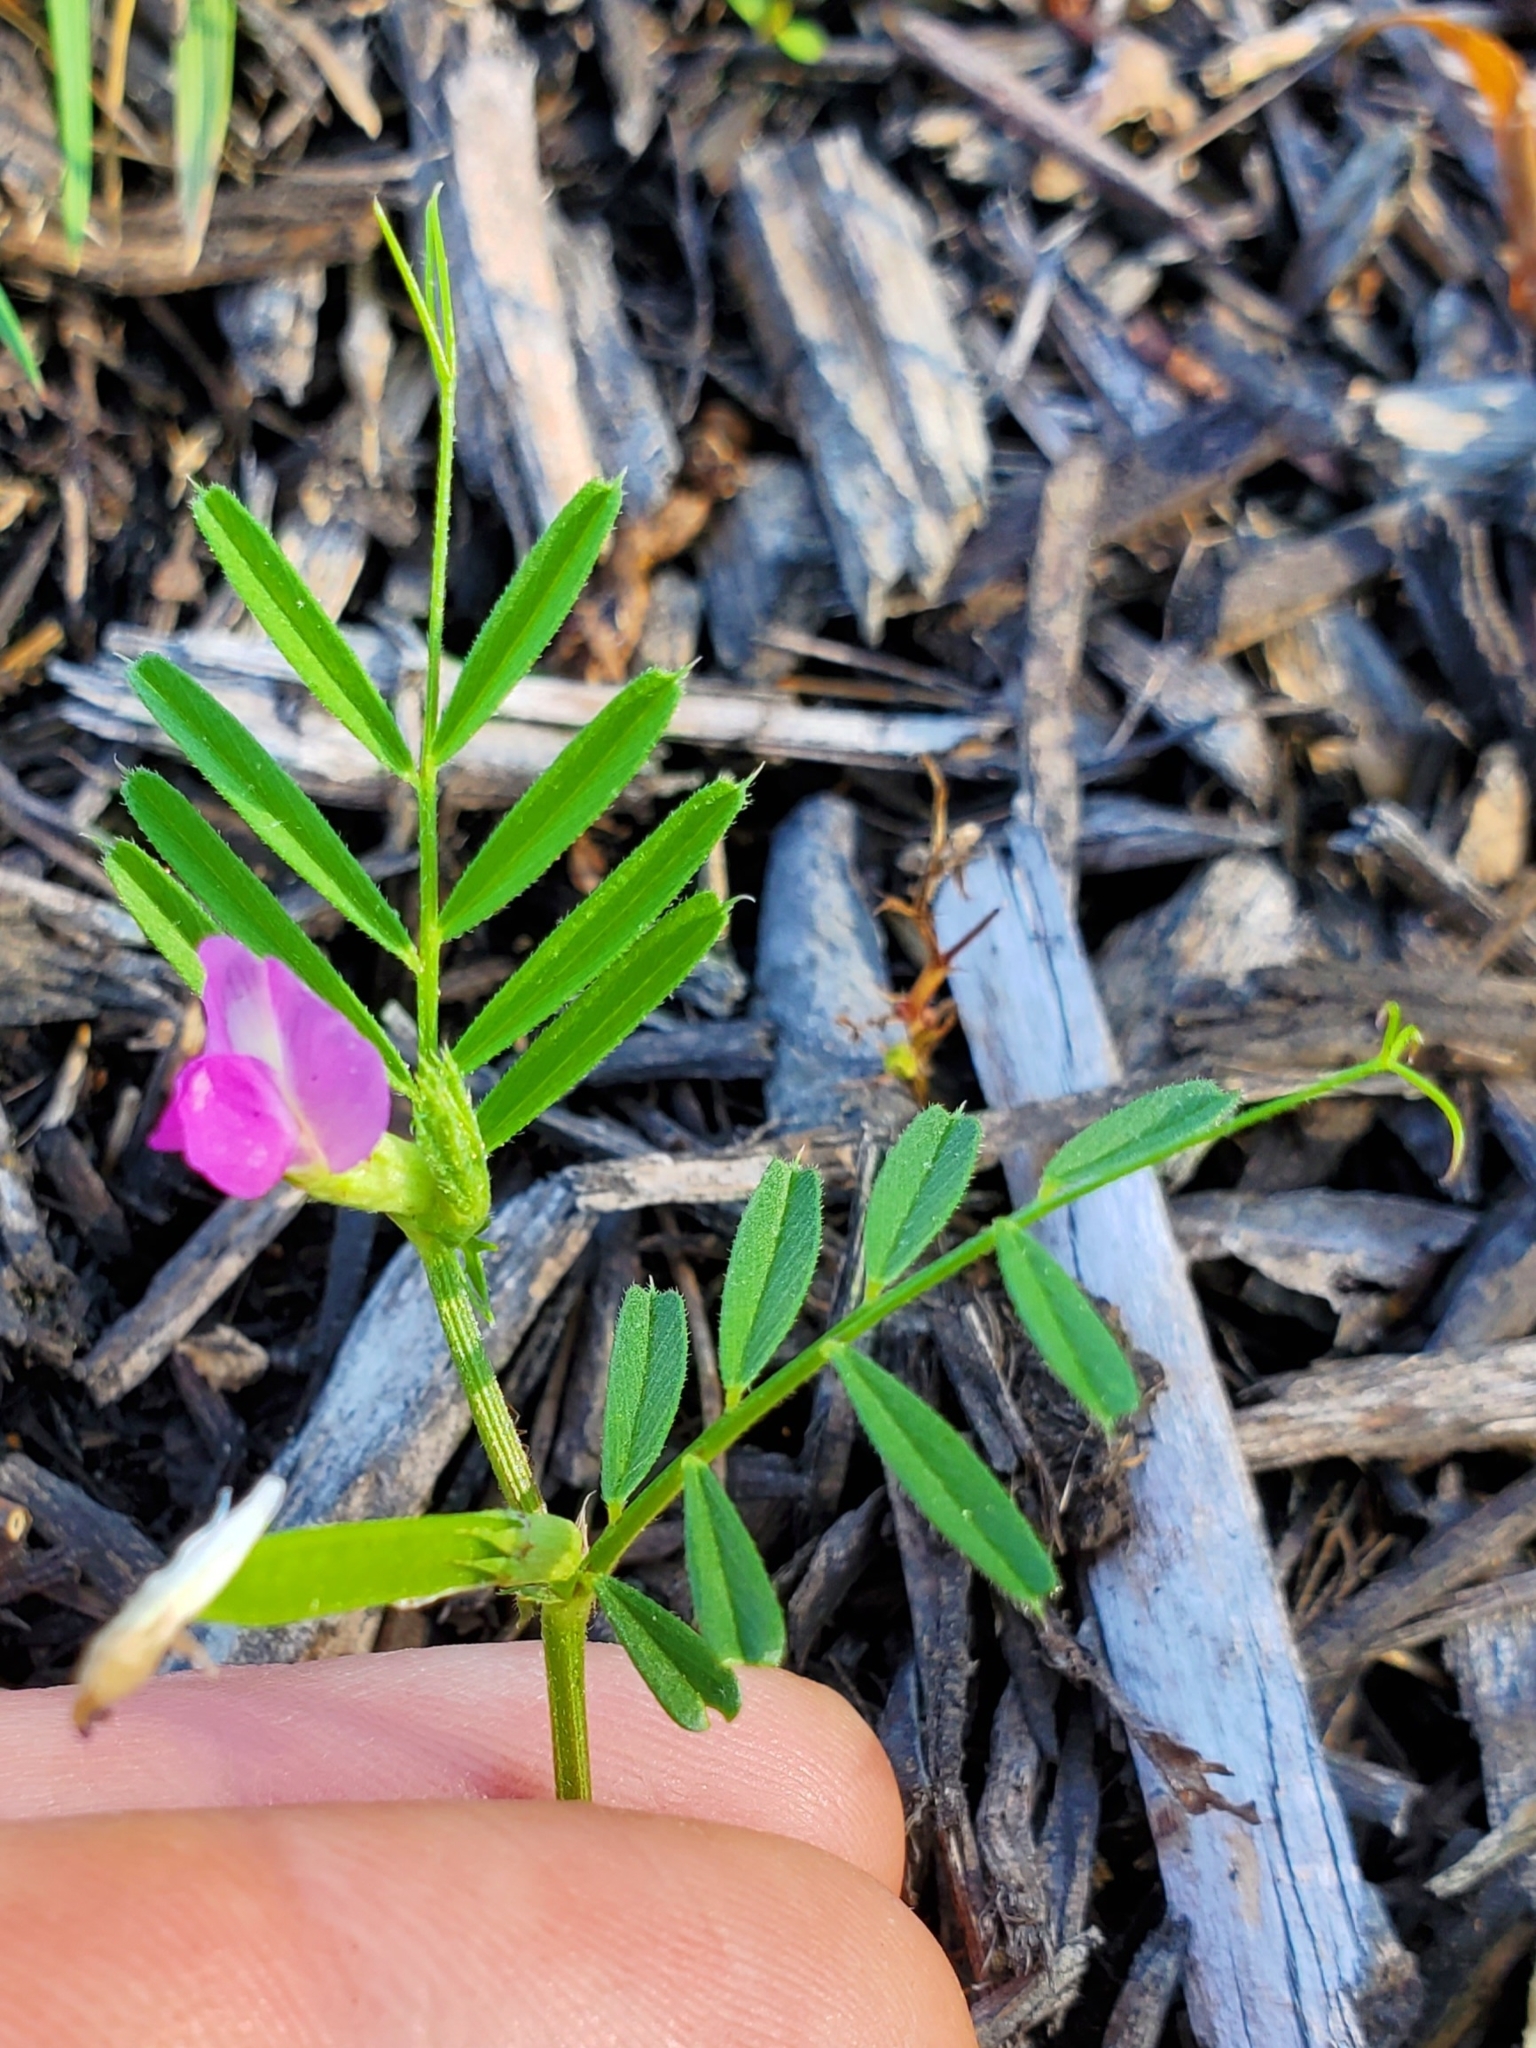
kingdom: Plantae
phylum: Tracheophyta
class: Magnoliopsida
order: Fabales
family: Fabaceae
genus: Vicia
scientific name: Vicia sativa
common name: Garden vetch
